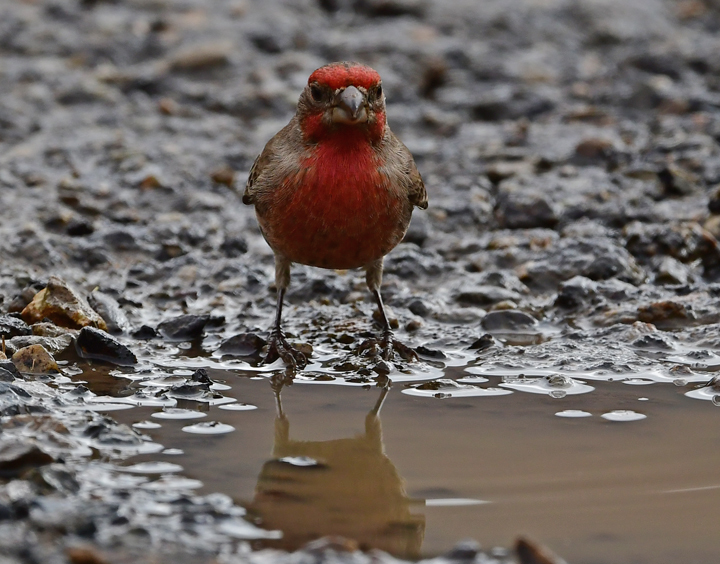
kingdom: Animalia
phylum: Chordata
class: Aves
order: Passeriformes
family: Fringillidae
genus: Haemorhous
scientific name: Haemorhous mexicanus
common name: House finch
